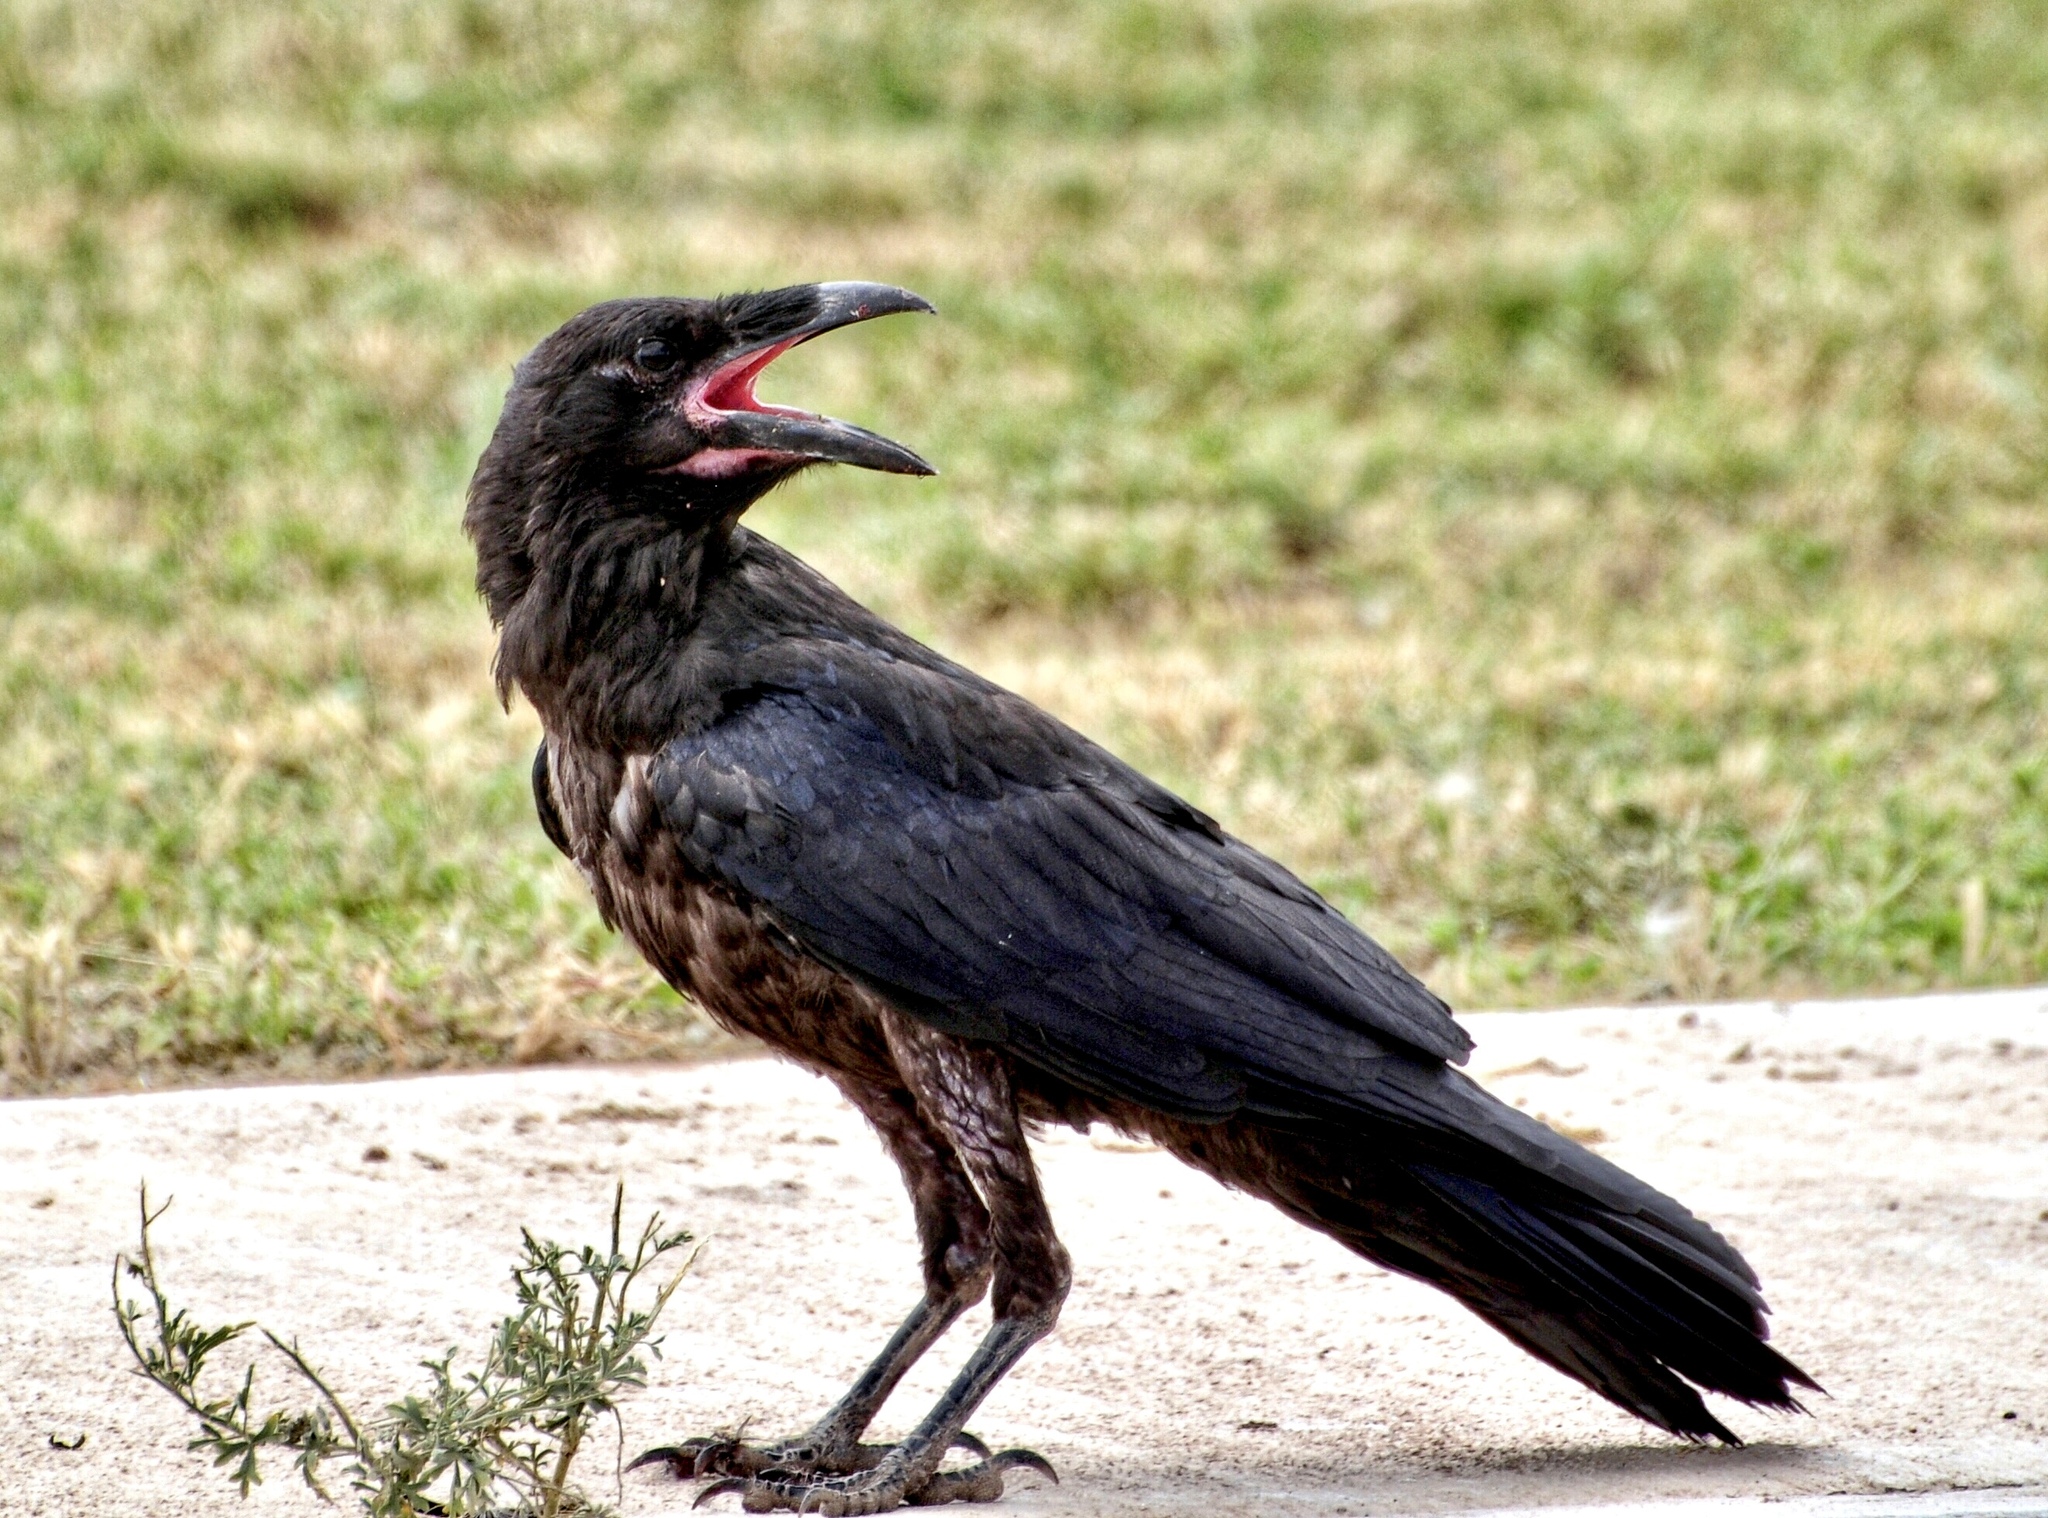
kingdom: Animalia
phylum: Chordata
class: Aves
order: Passeriformes
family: Corvidae
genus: Corvus
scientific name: Corvus corax
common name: Common raven
